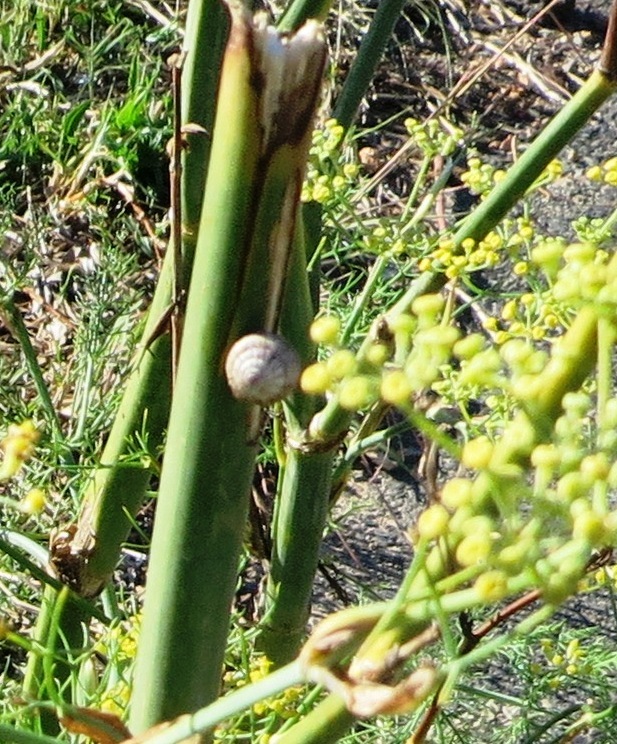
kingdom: Animalia
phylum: Mollusca
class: Gastropoda
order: Stylommatophora
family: Helicidae
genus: Theba
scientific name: Theba pisana
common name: White snail
